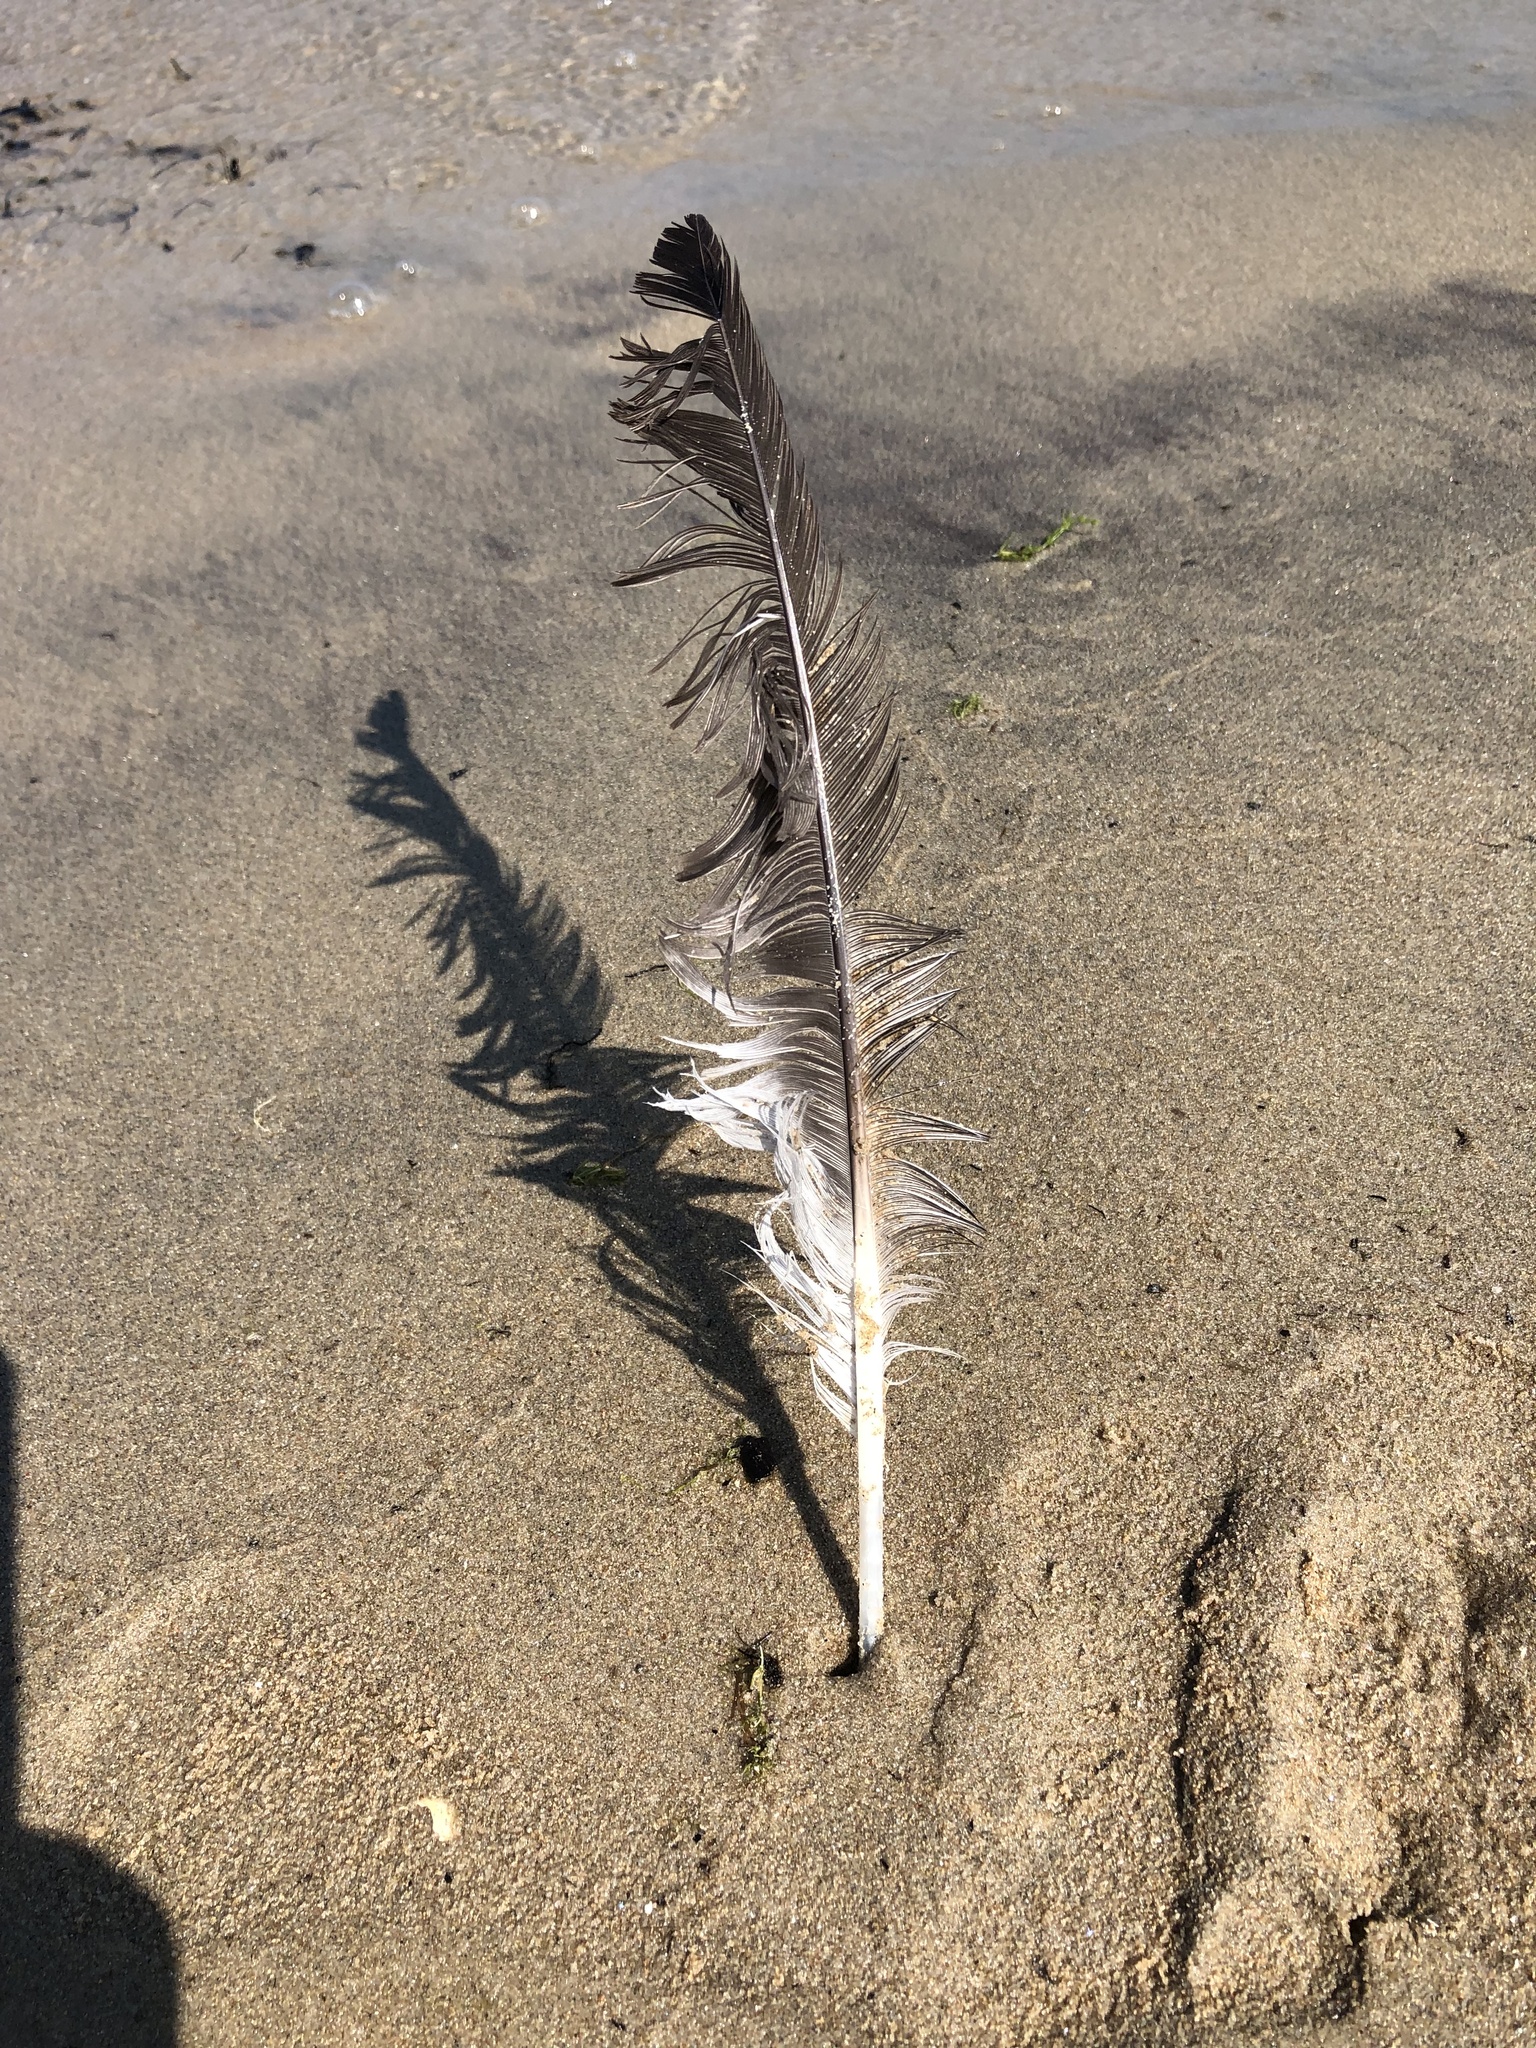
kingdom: Animalia
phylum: Chordata
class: Aves
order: Anseriformes
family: Anatidae
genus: Branta
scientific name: Branta canadensis
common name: Canada goose
